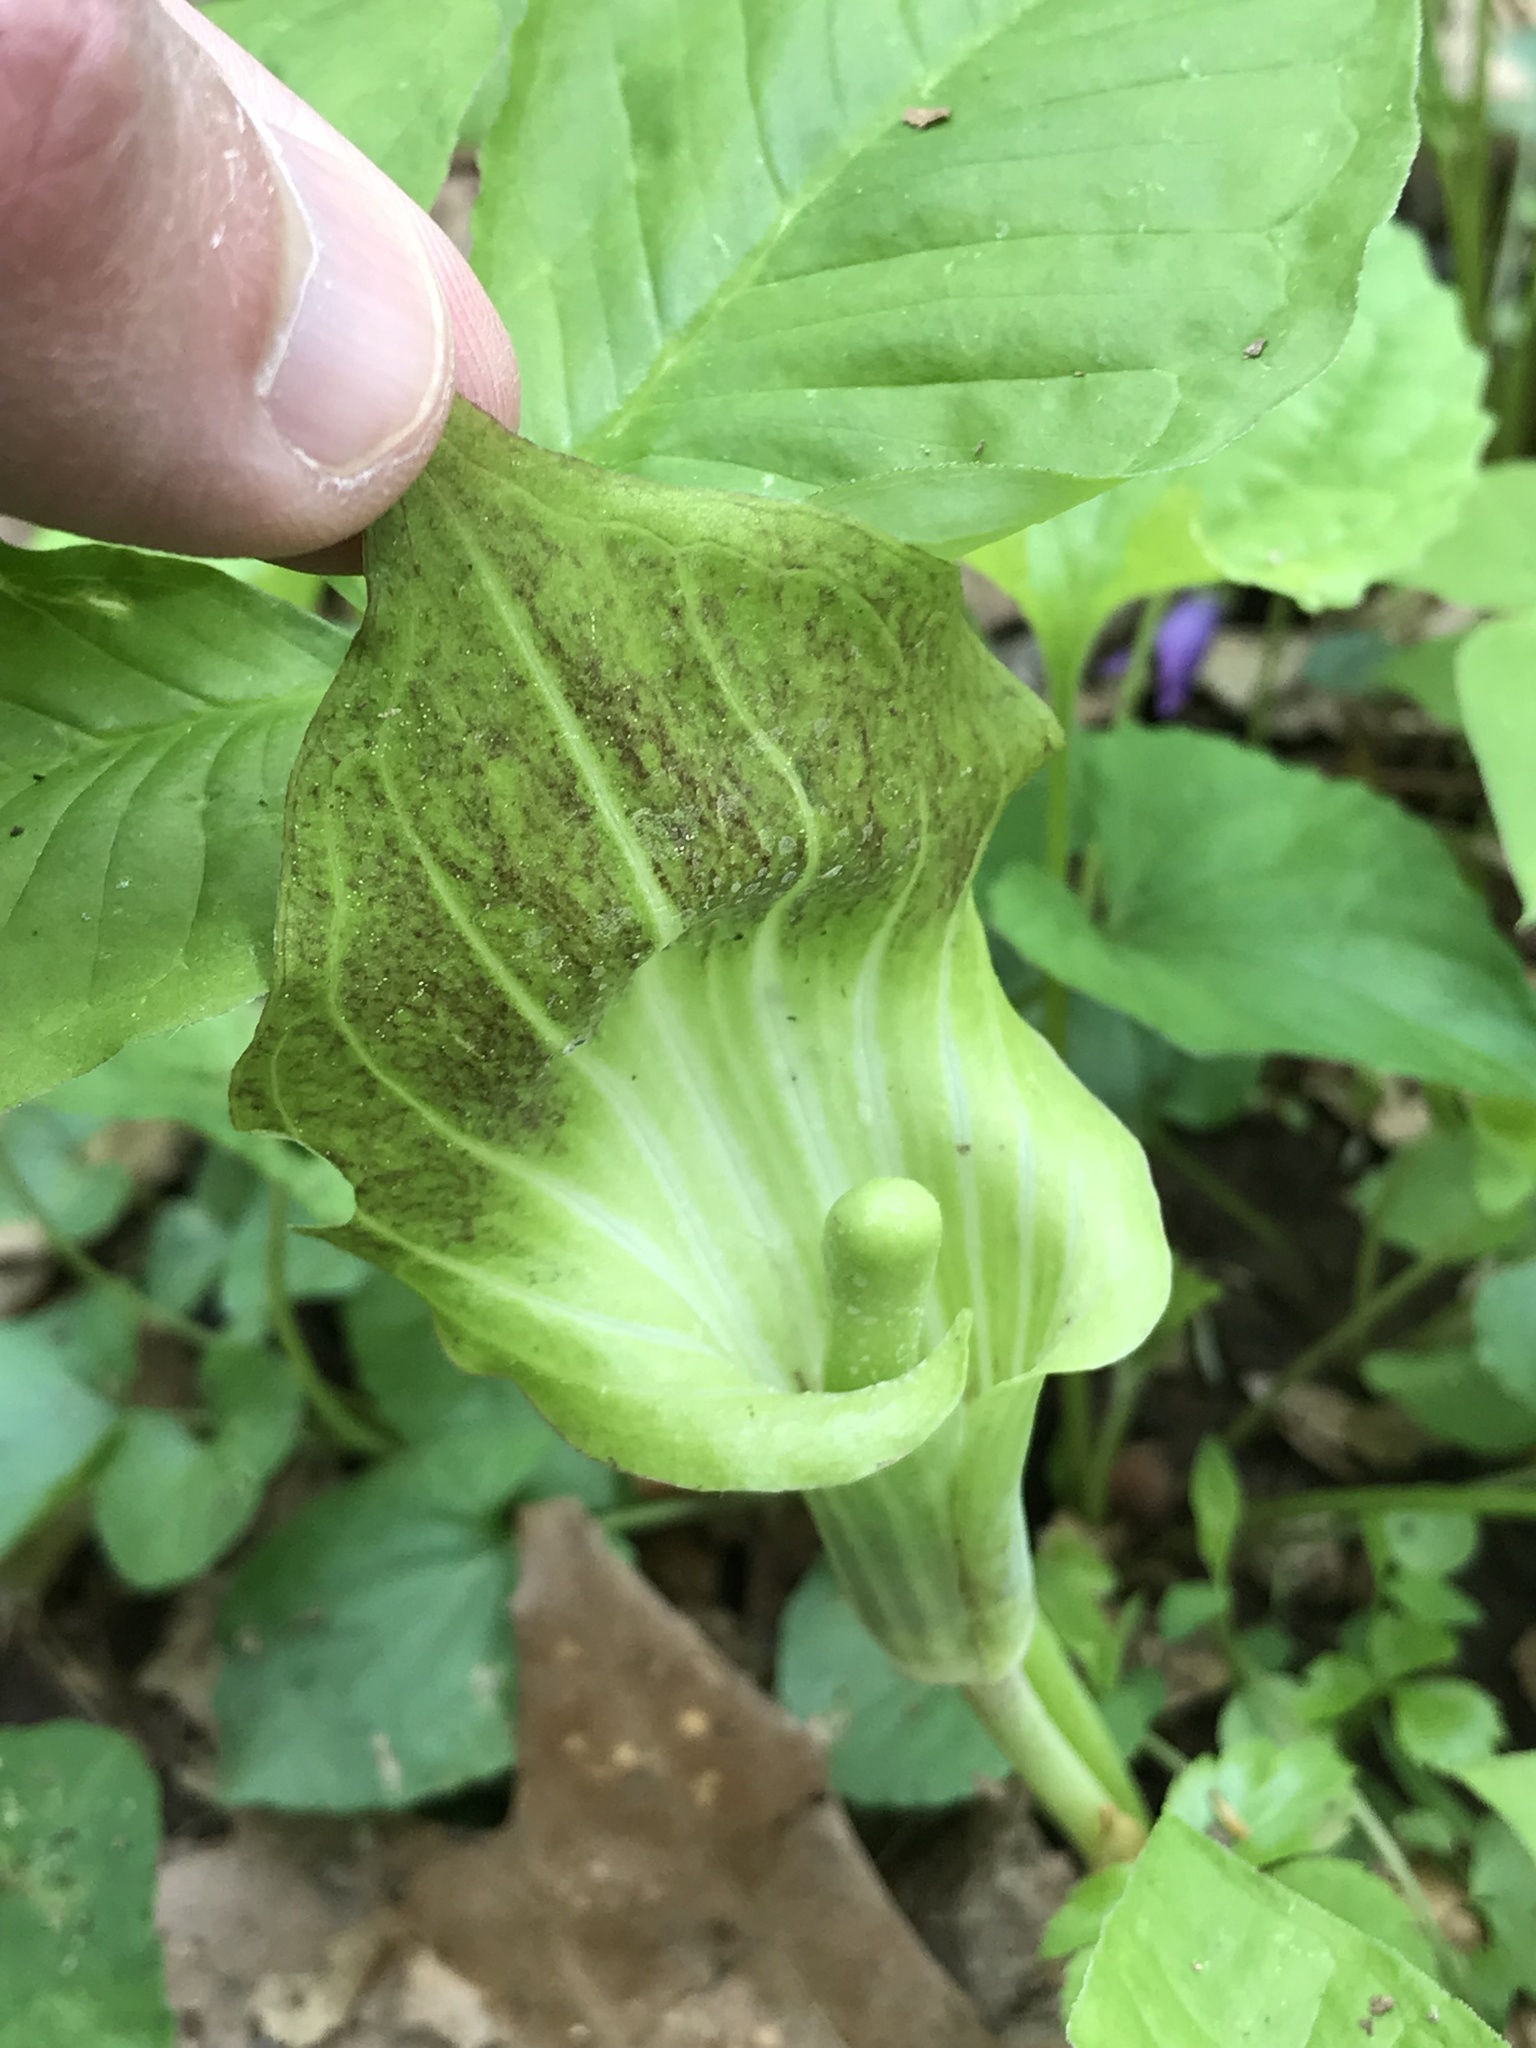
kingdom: Plantae
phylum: Tracheophyta
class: Liliopsida
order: Alismatales
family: Araceae
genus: Arisaema
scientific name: Arisaema triphyllum
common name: Jack-in-the-pulpit
